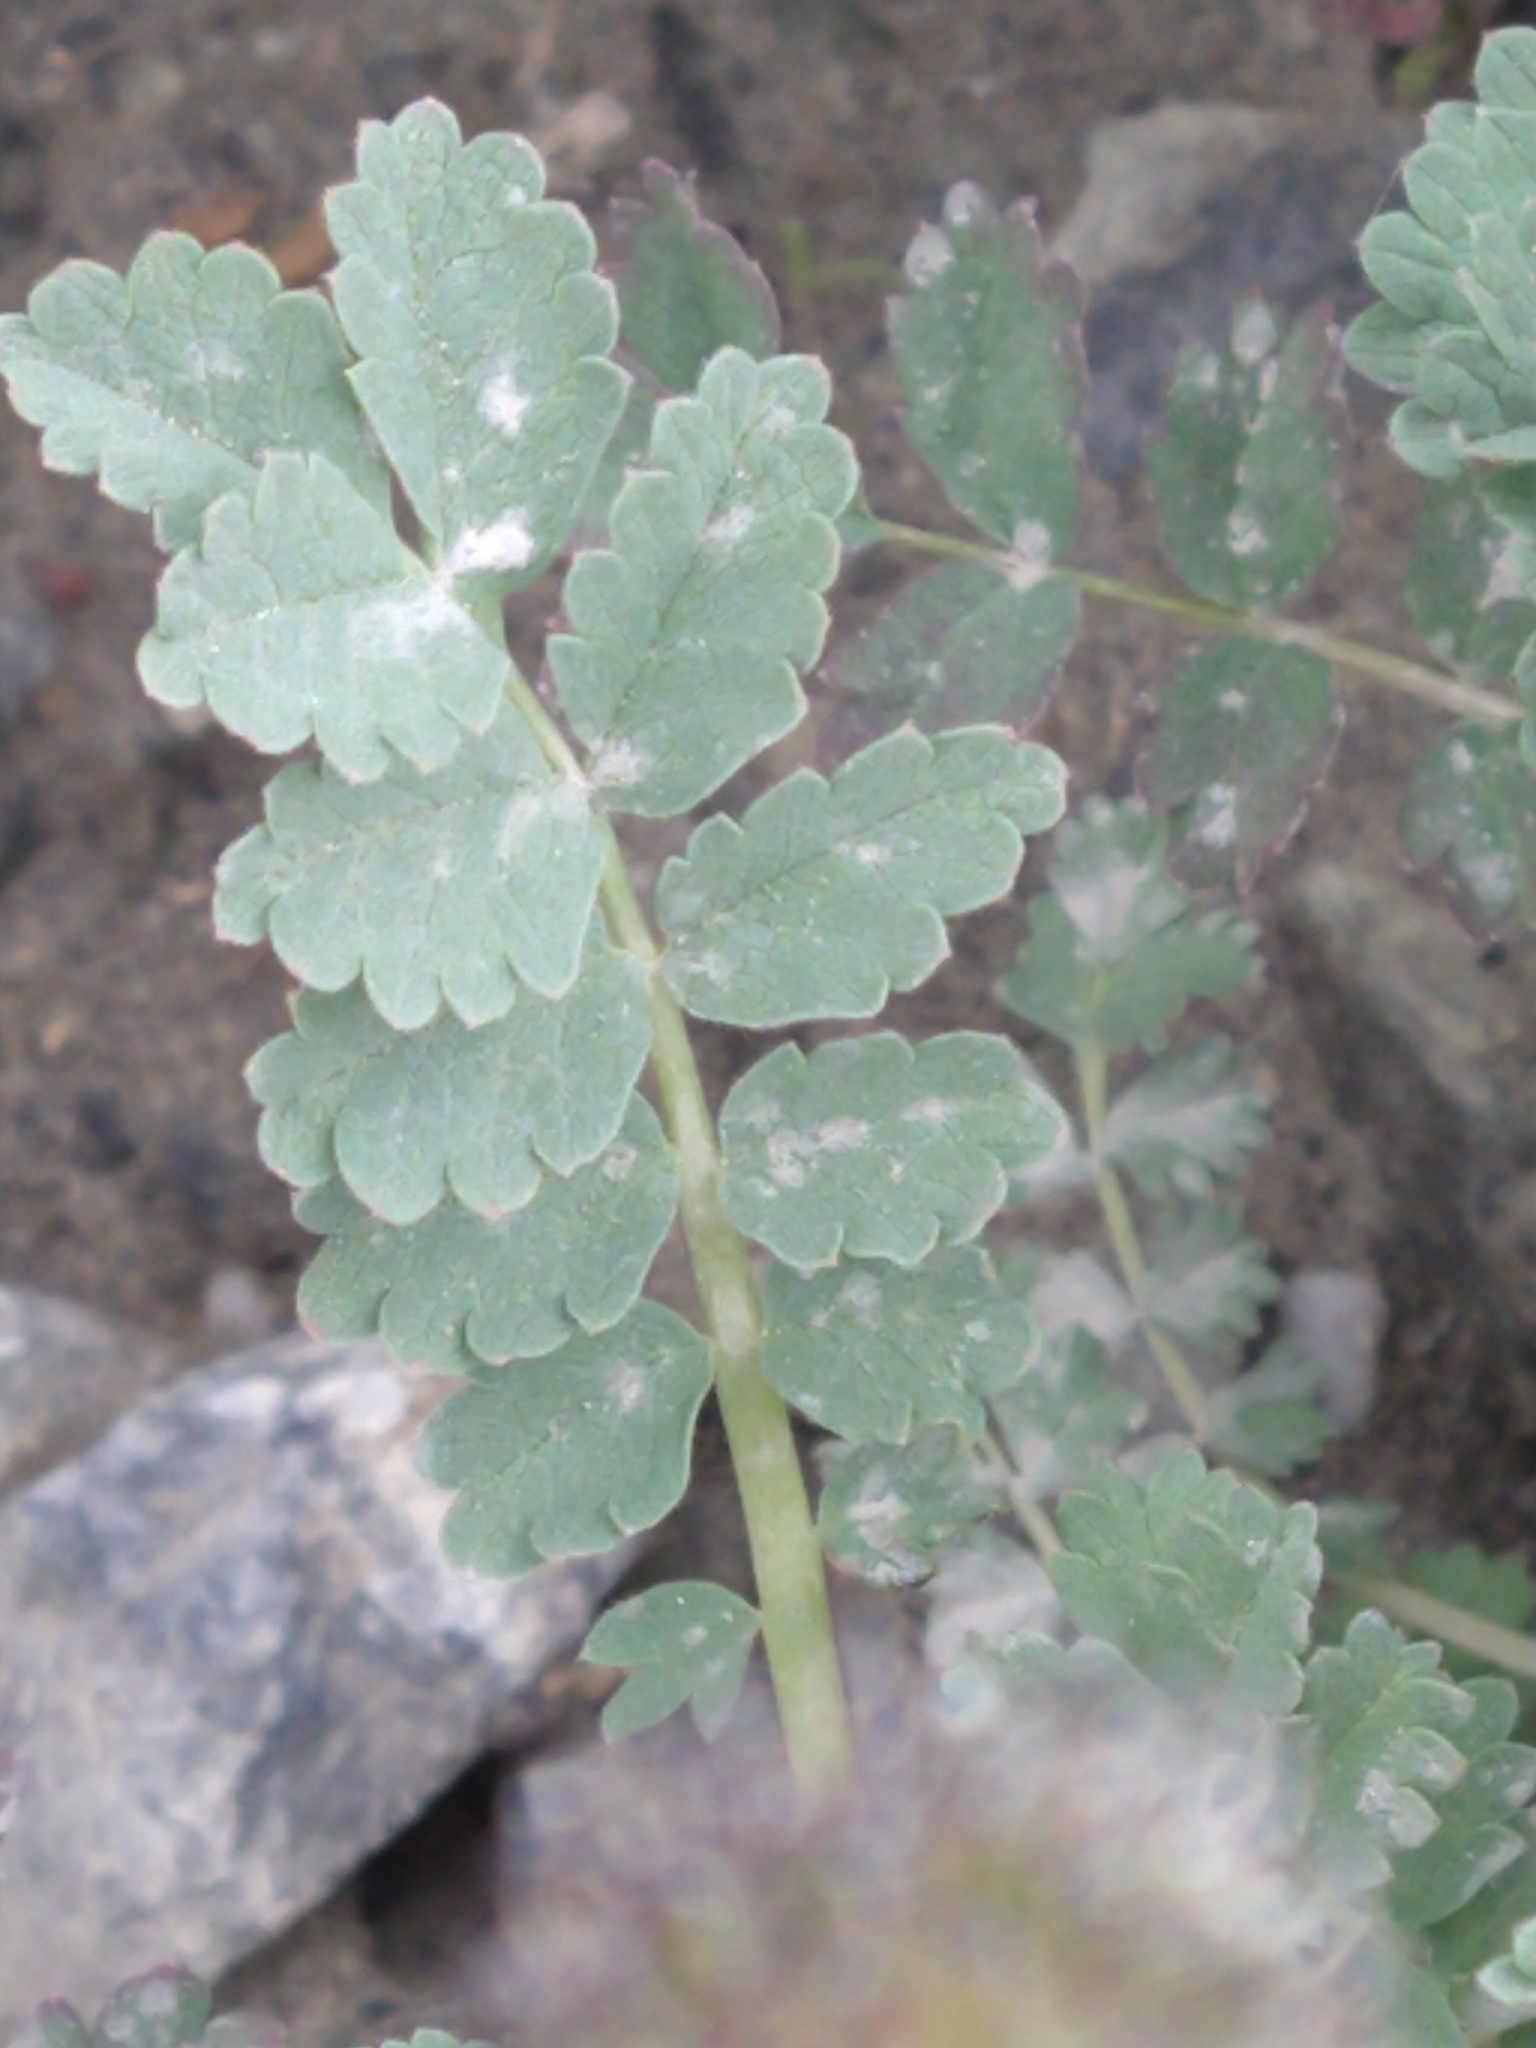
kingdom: Plantae
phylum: Tracheophyta
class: Magnoliopsida
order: Rosales
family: Rosaceae
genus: Acaena
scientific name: Acaena magellanica
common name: New zealand burr
